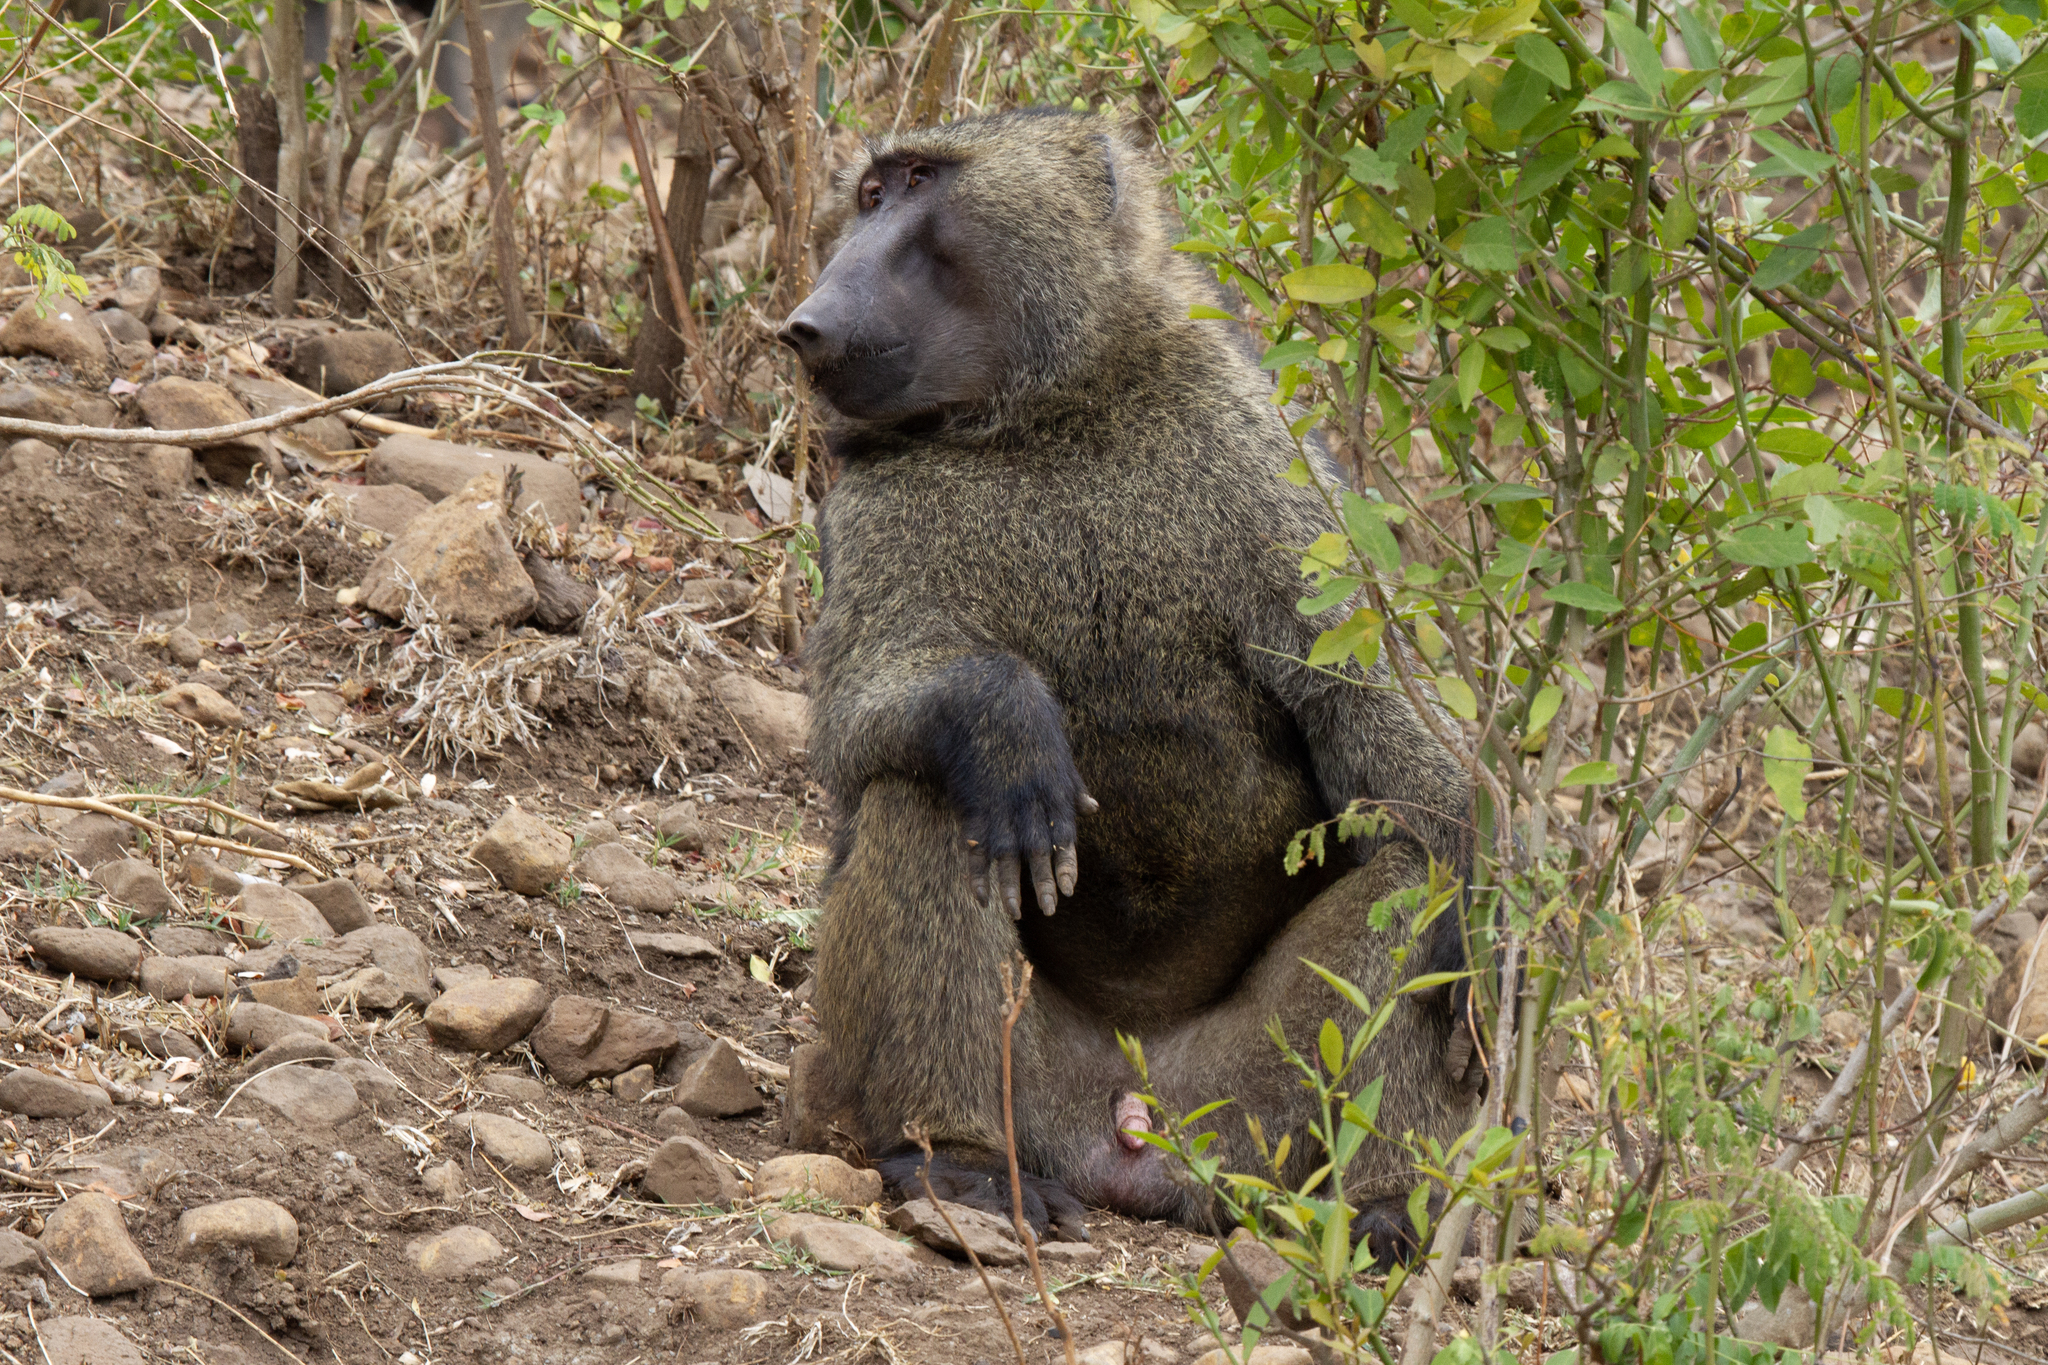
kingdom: Animalia
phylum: Chordata
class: Mammalia
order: Primates
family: Cercopithecidae
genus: Papio
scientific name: Papio anubis
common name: Olive baboon
